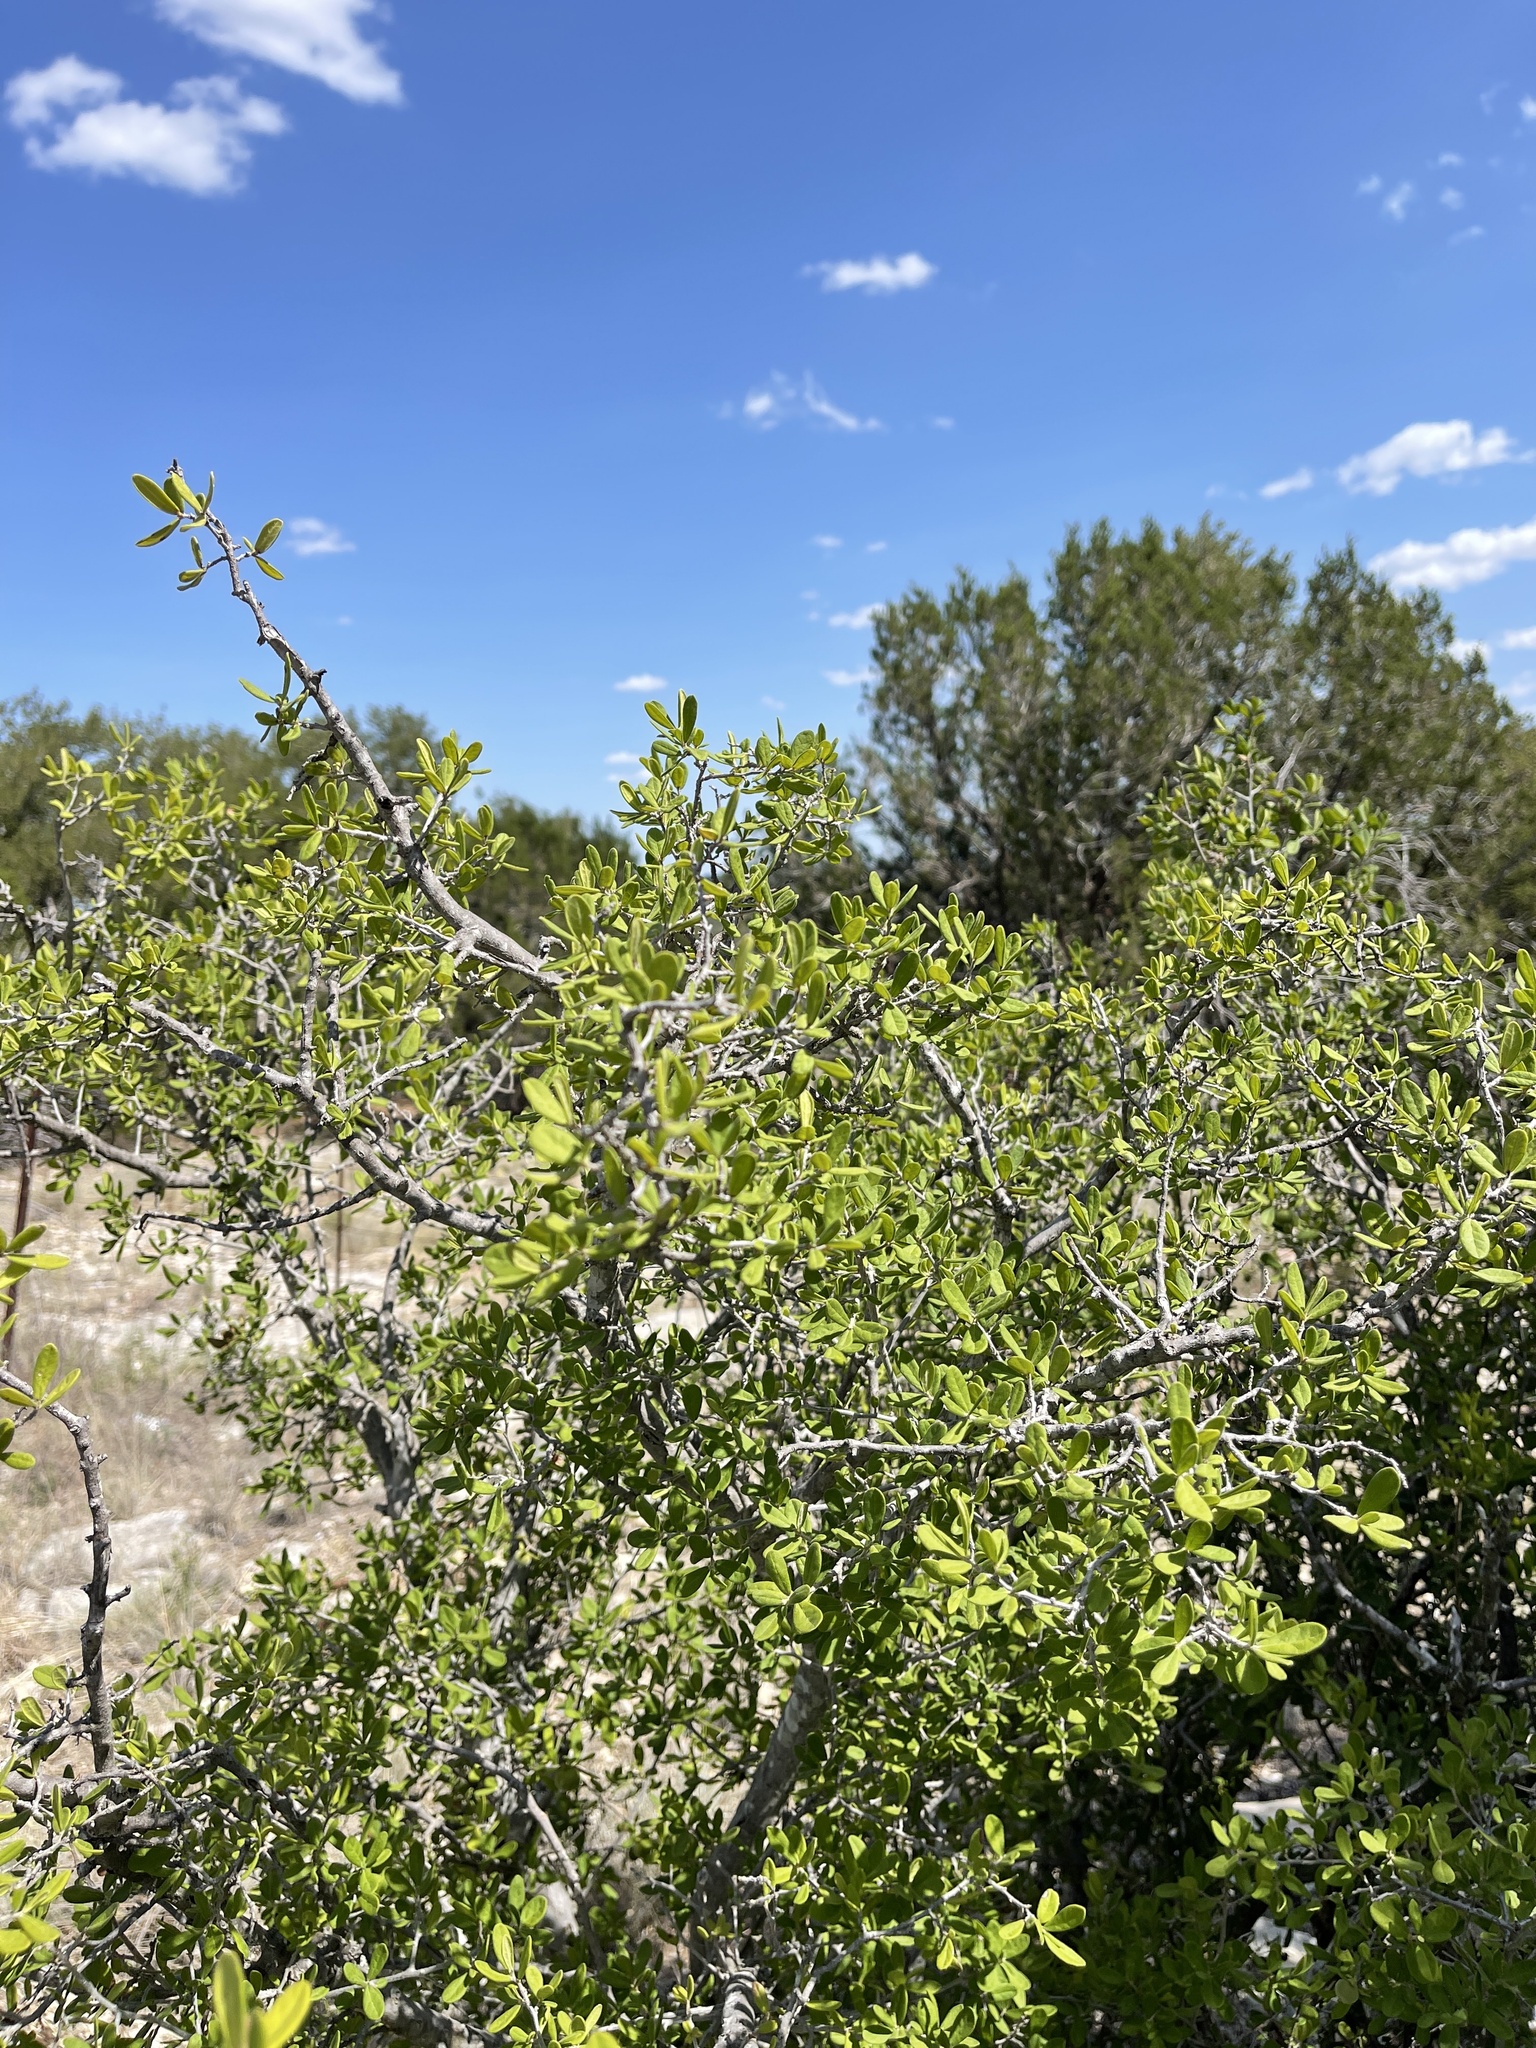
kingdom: Plantae
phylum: Tracheophyta
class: Magnoliopsida
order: Ericales
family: Ebenaceae
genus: Diospyros
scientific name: Diospyros texana
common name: Texas persimmon
